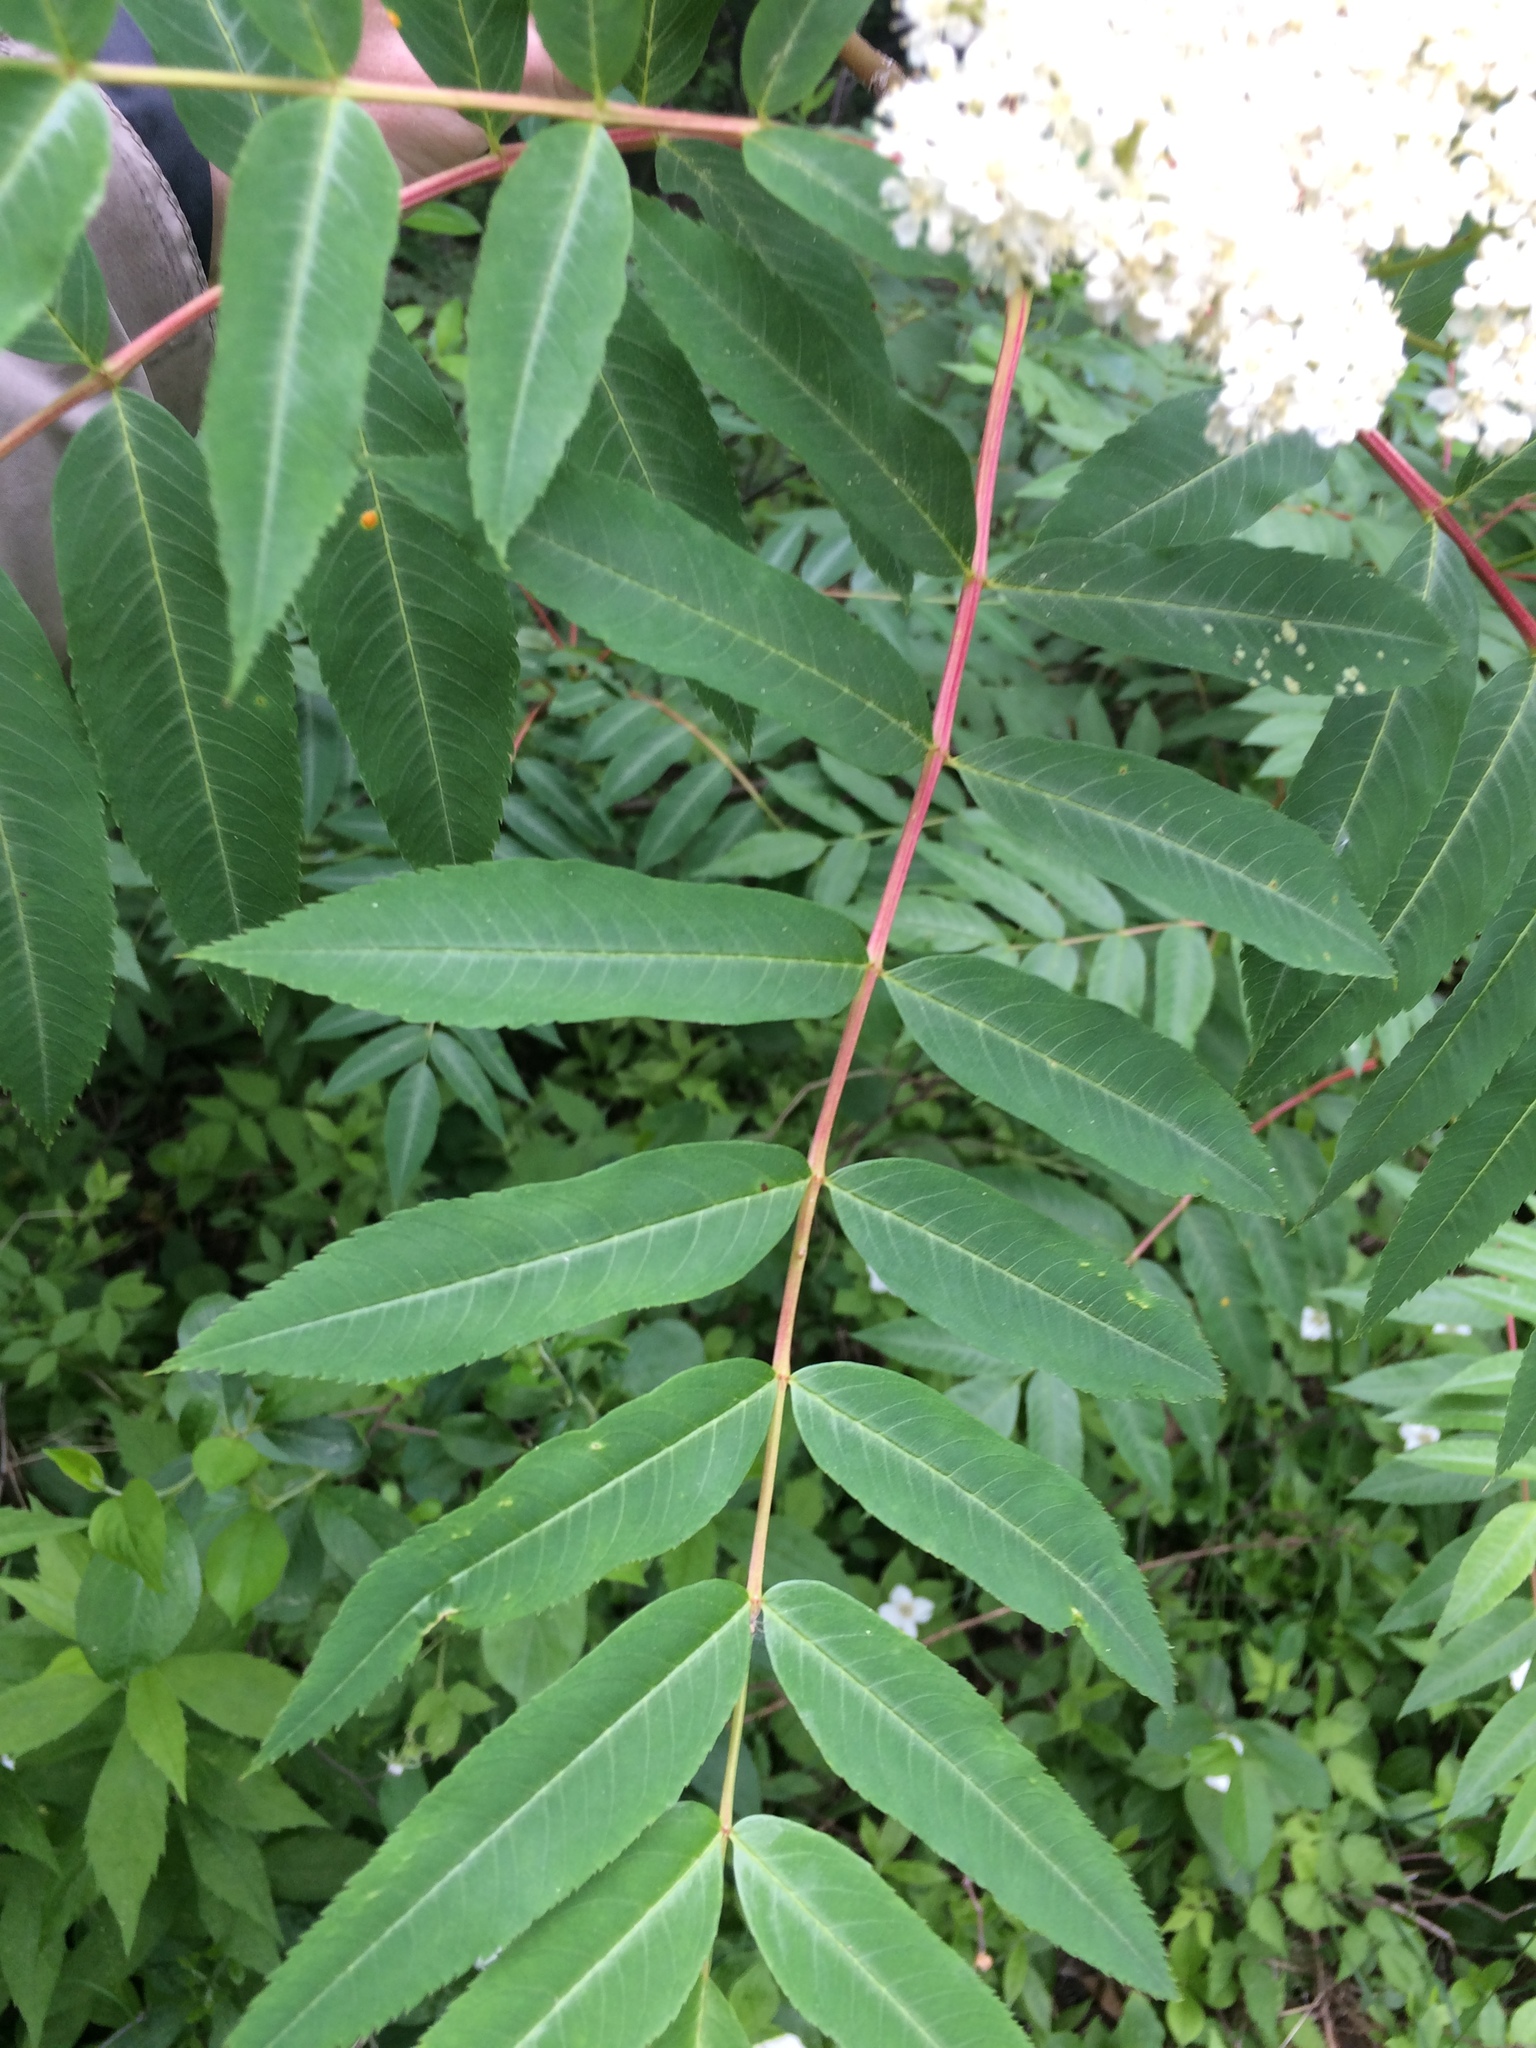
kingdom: Plantae
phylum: Tracheophyta
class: Magnoliopsida
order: Rosales
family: Rosaceae
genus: Sorbus
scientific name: Sorbus americana
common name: American mountain-ash
